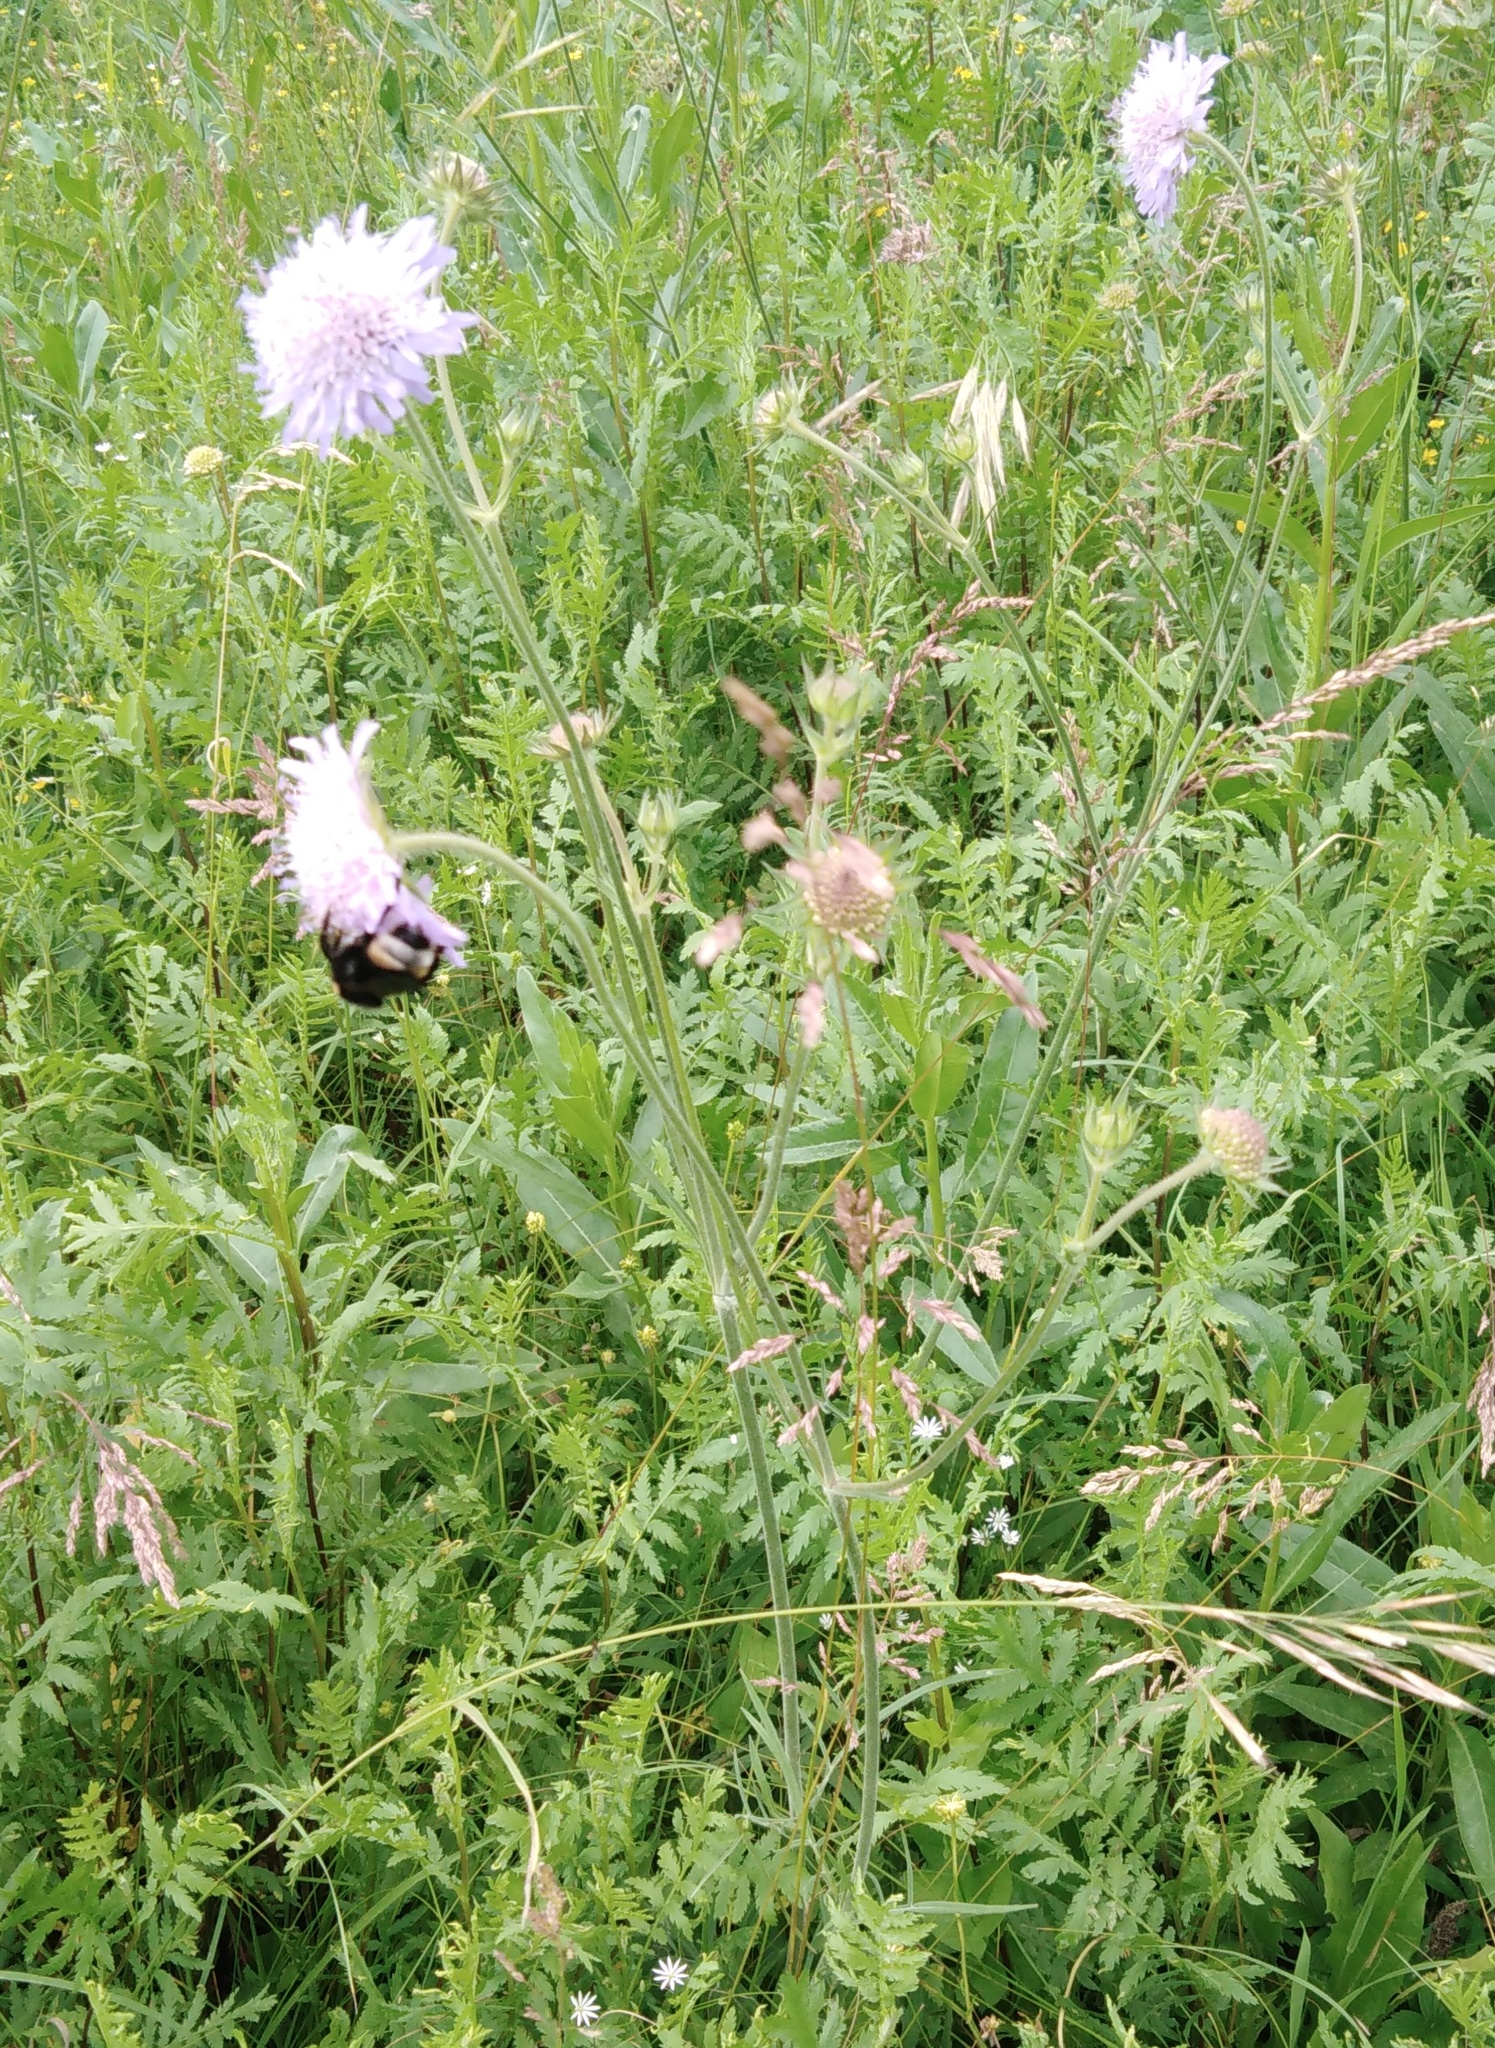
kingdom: Plantae
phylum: Tracheophyta
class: Magnoliopsida
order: Dipsacales
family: Caprifoliaceae
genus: Knautia
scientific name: Knautia arvensis
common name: Field scabiosa
